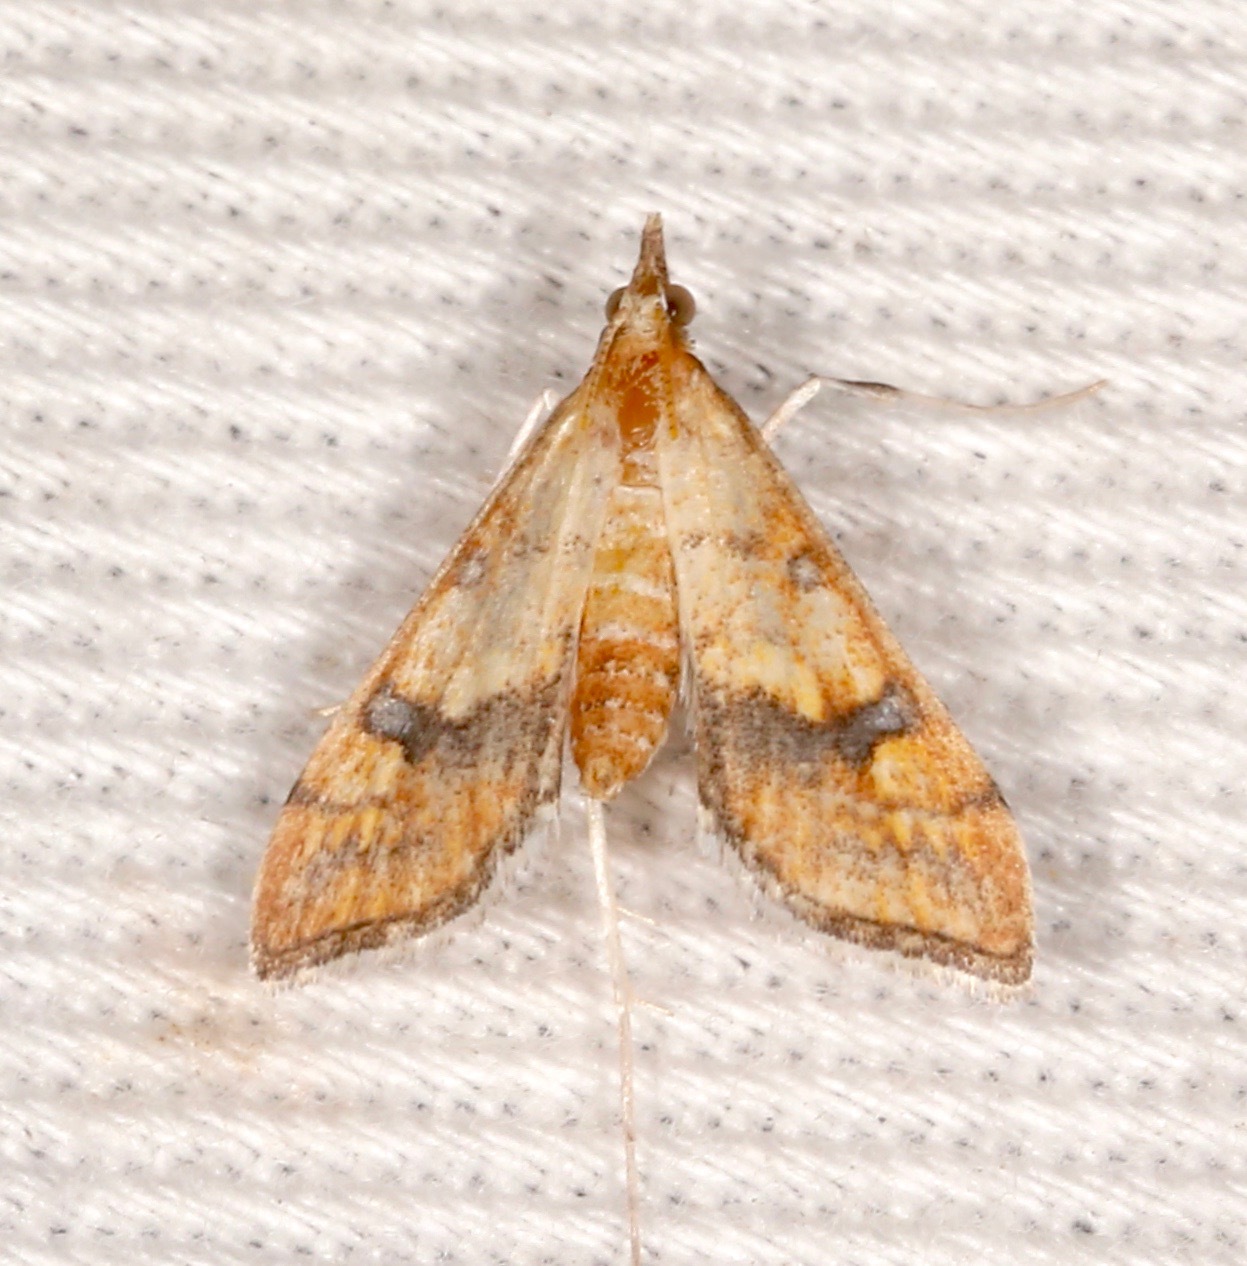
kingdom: Animalia
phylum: Arthropoda
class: Insecta
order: Lepidoptera
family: Crambidae
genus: Choristostigma
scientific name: Choristostigma elegantalis
